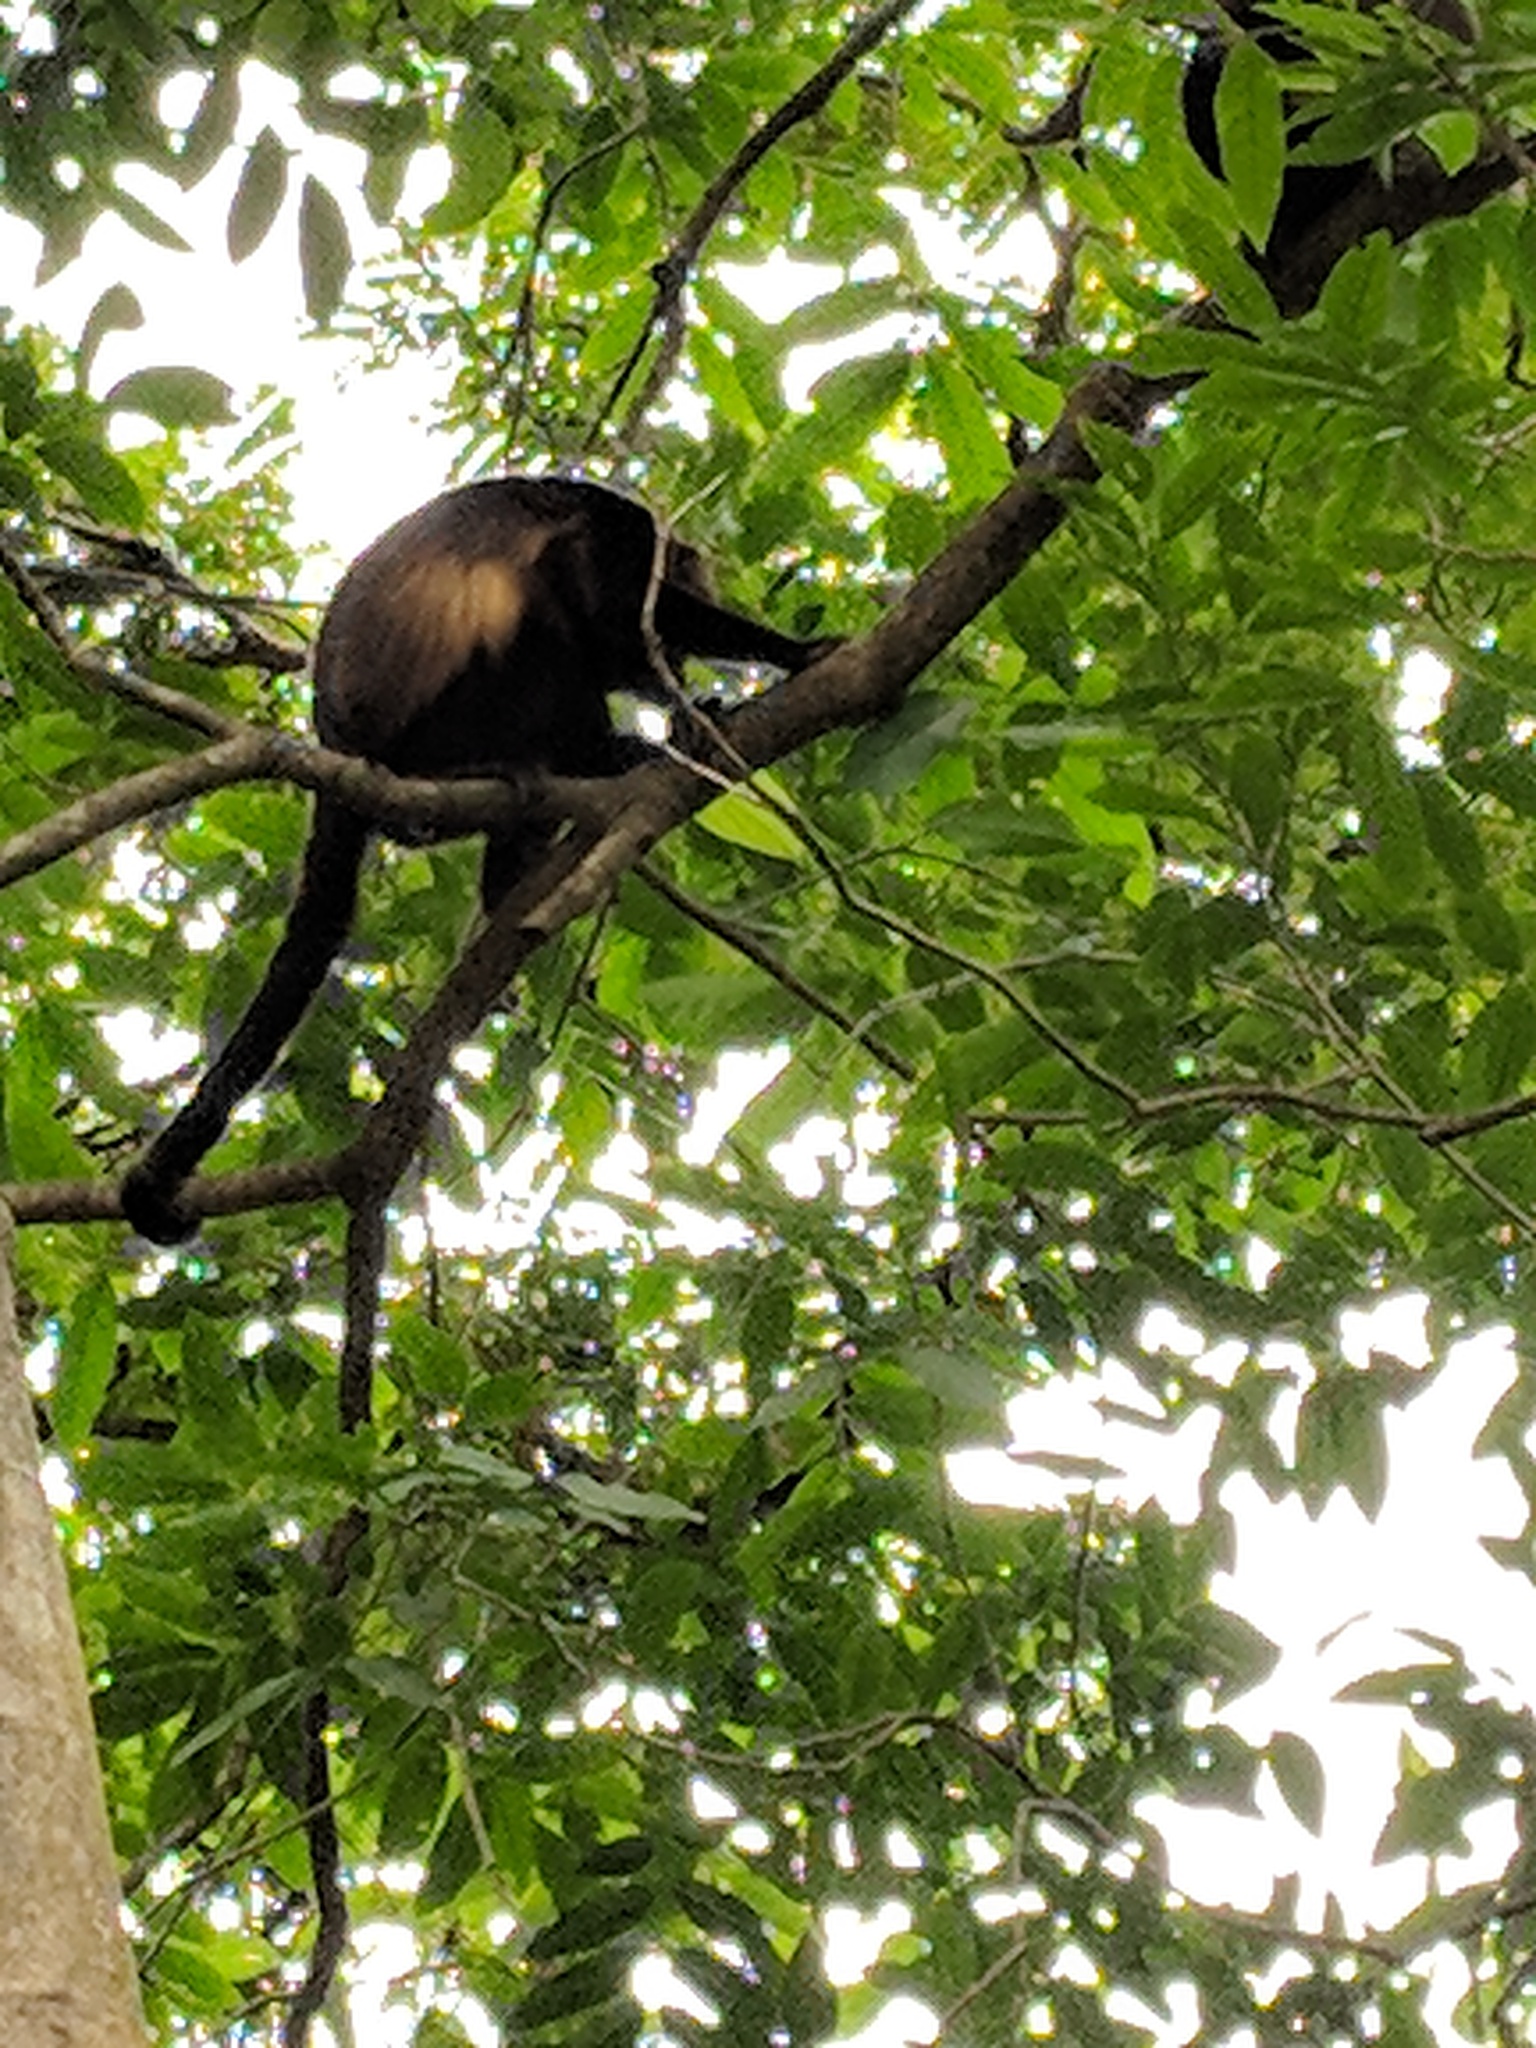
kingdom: Animalia
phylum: Chordata
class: Mammalia
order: Primates
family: Atelidae
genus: Alouatta
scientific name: Alouatta palliata
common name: Mantled howler
